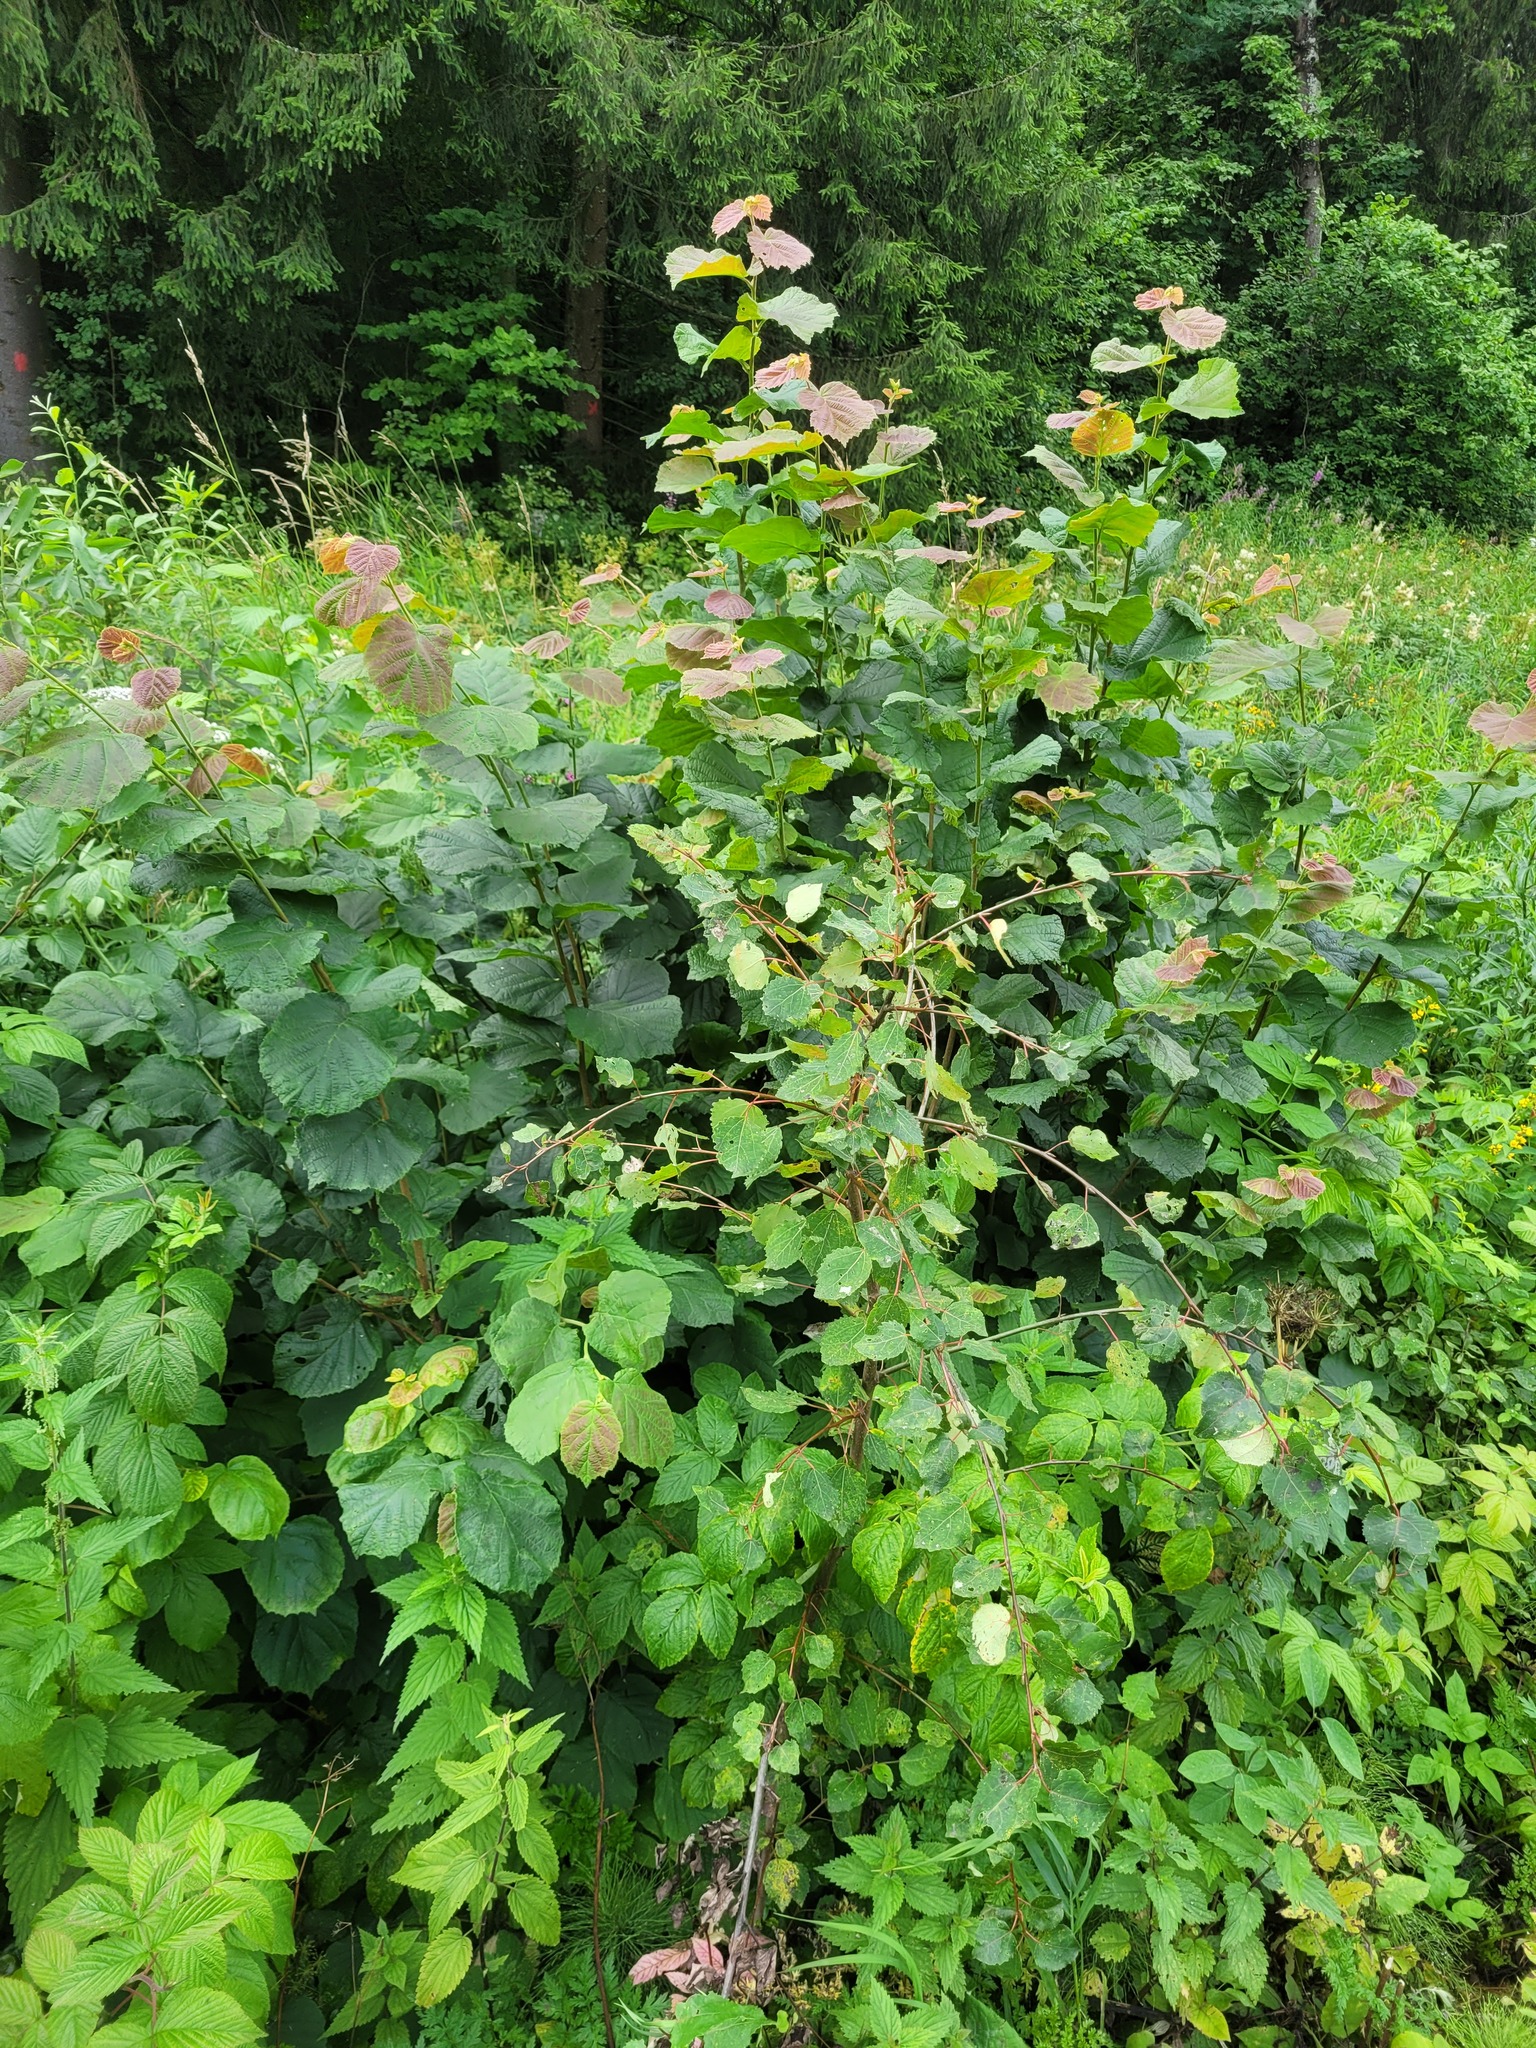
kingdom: Plantae
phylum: Tracheophyta
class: Magnoliopsida
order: Malpighiales
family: Salicaceae
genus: Populus
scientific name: Populus tremula
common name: European aspen
